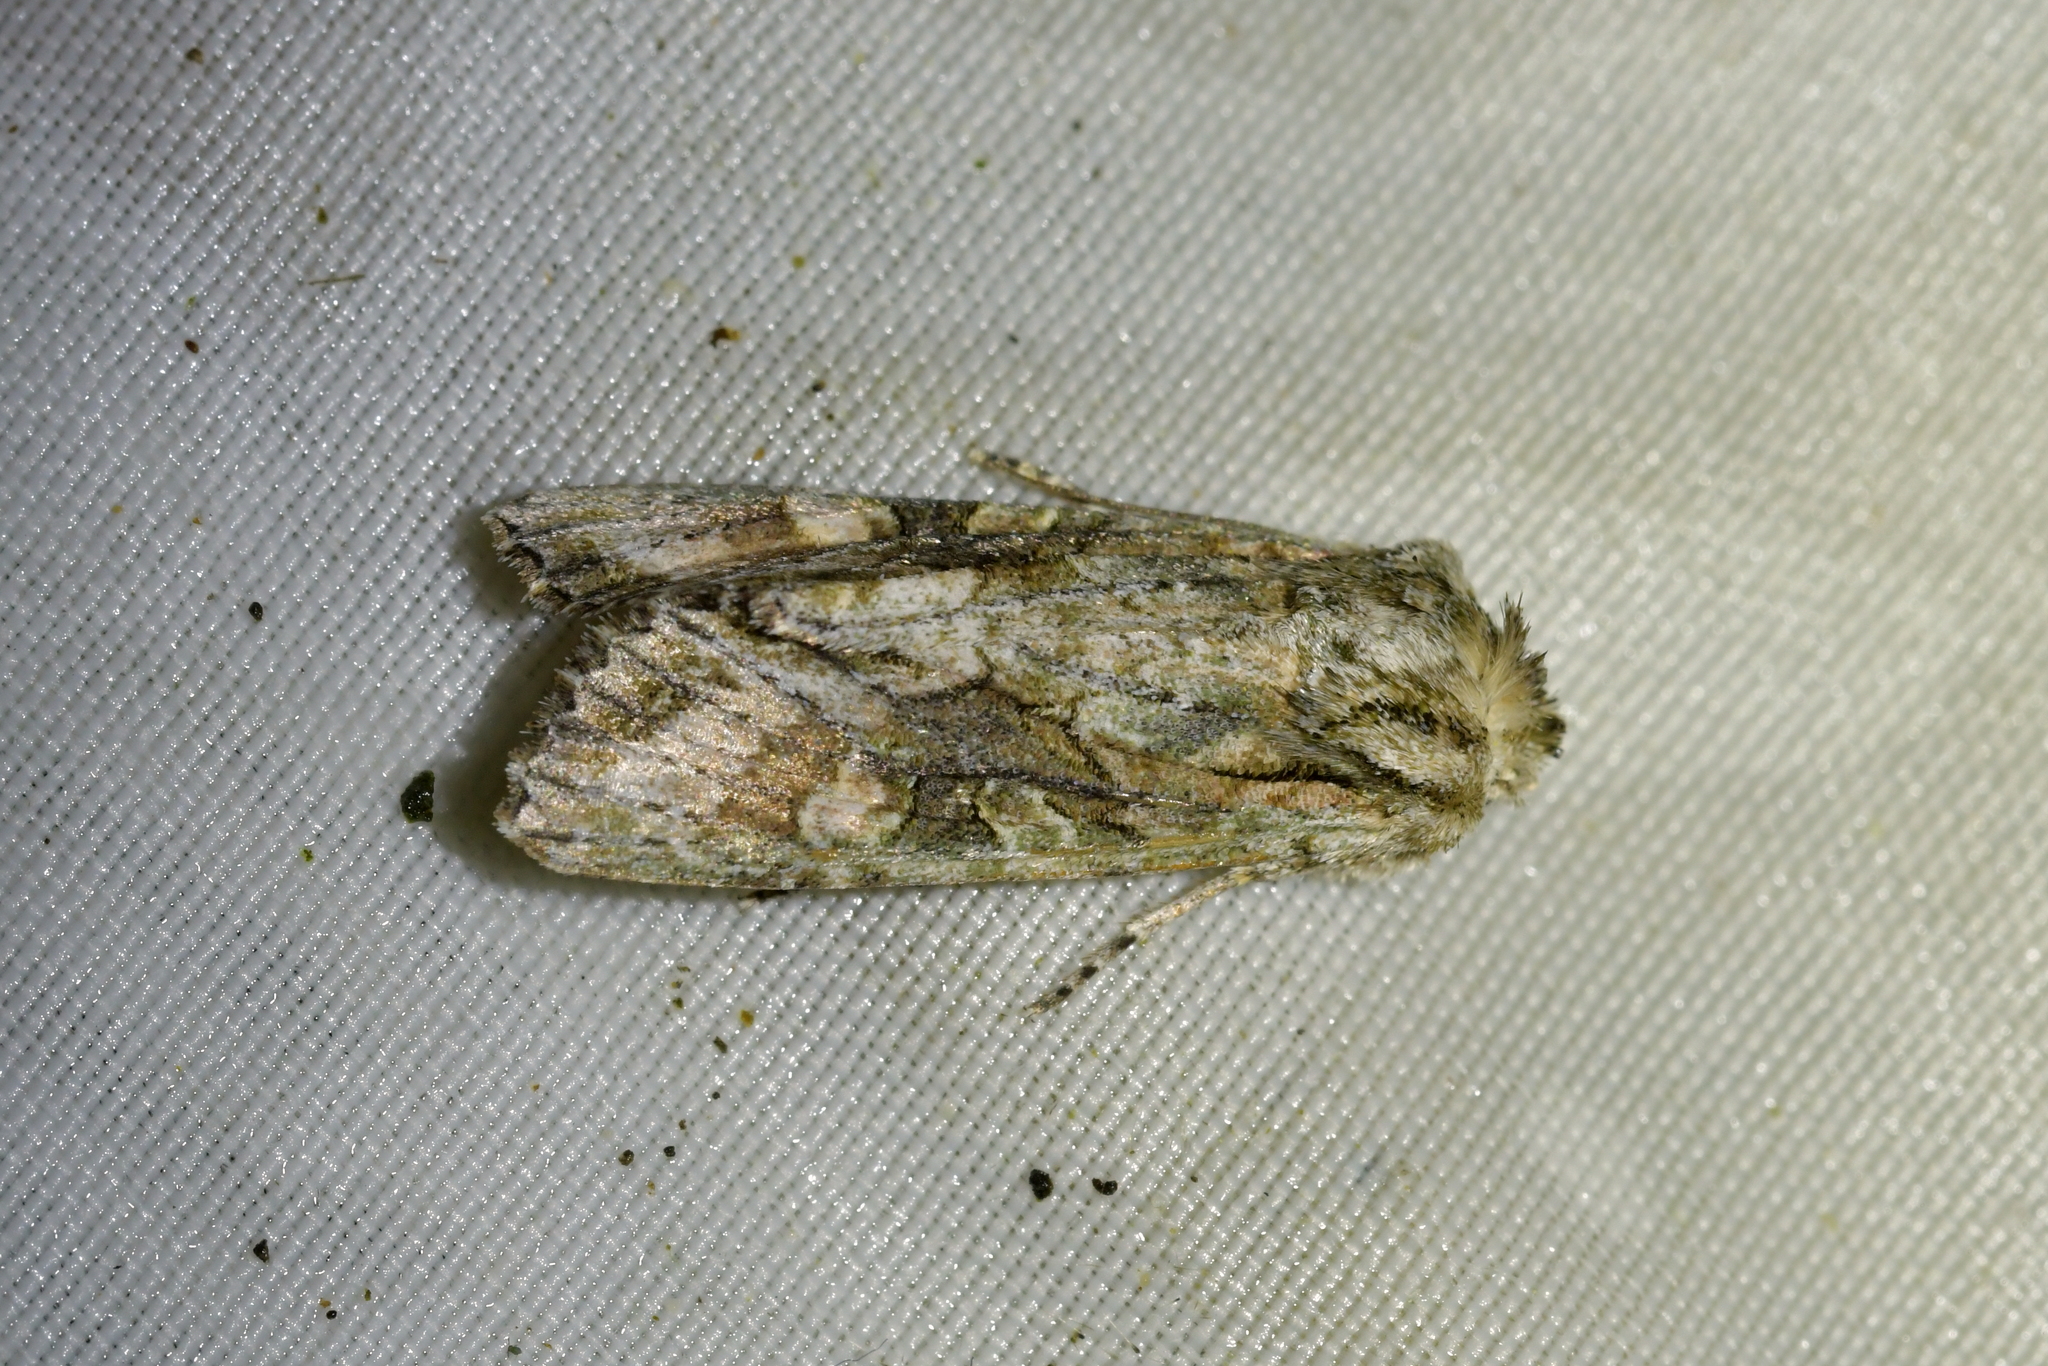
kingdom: Animalia
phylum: Arthropoda
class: Insecta
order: Lepidoptera
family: Noctuidae
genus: Ichneutica
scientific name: Ichneutica mutans
